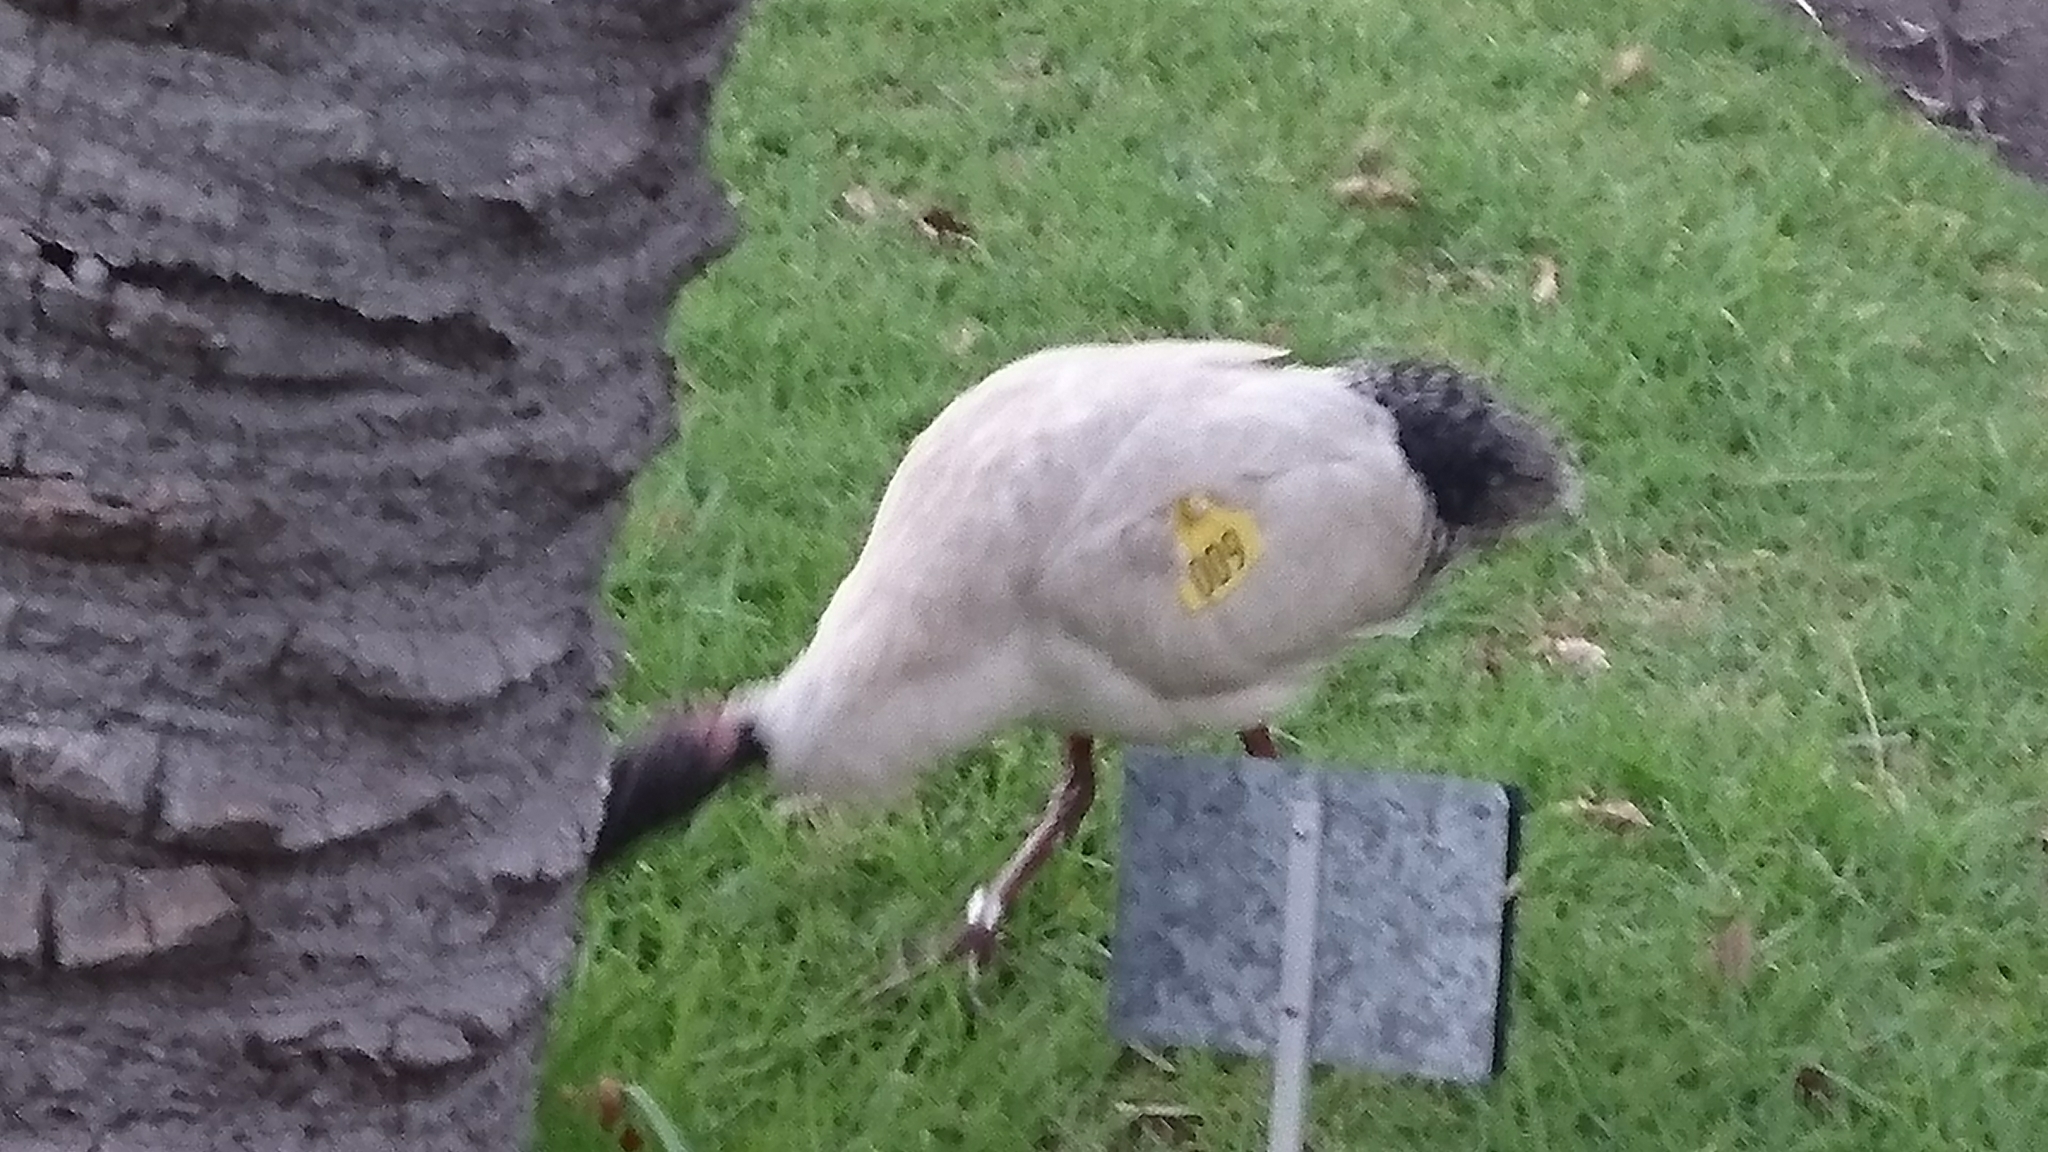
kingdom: Animalia
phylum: Chordata
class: Aves
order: Pelecaniformes
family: Threskiornithidae
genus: Threskiornis
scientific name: Threskiornis molucca
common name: Australian white ibis
